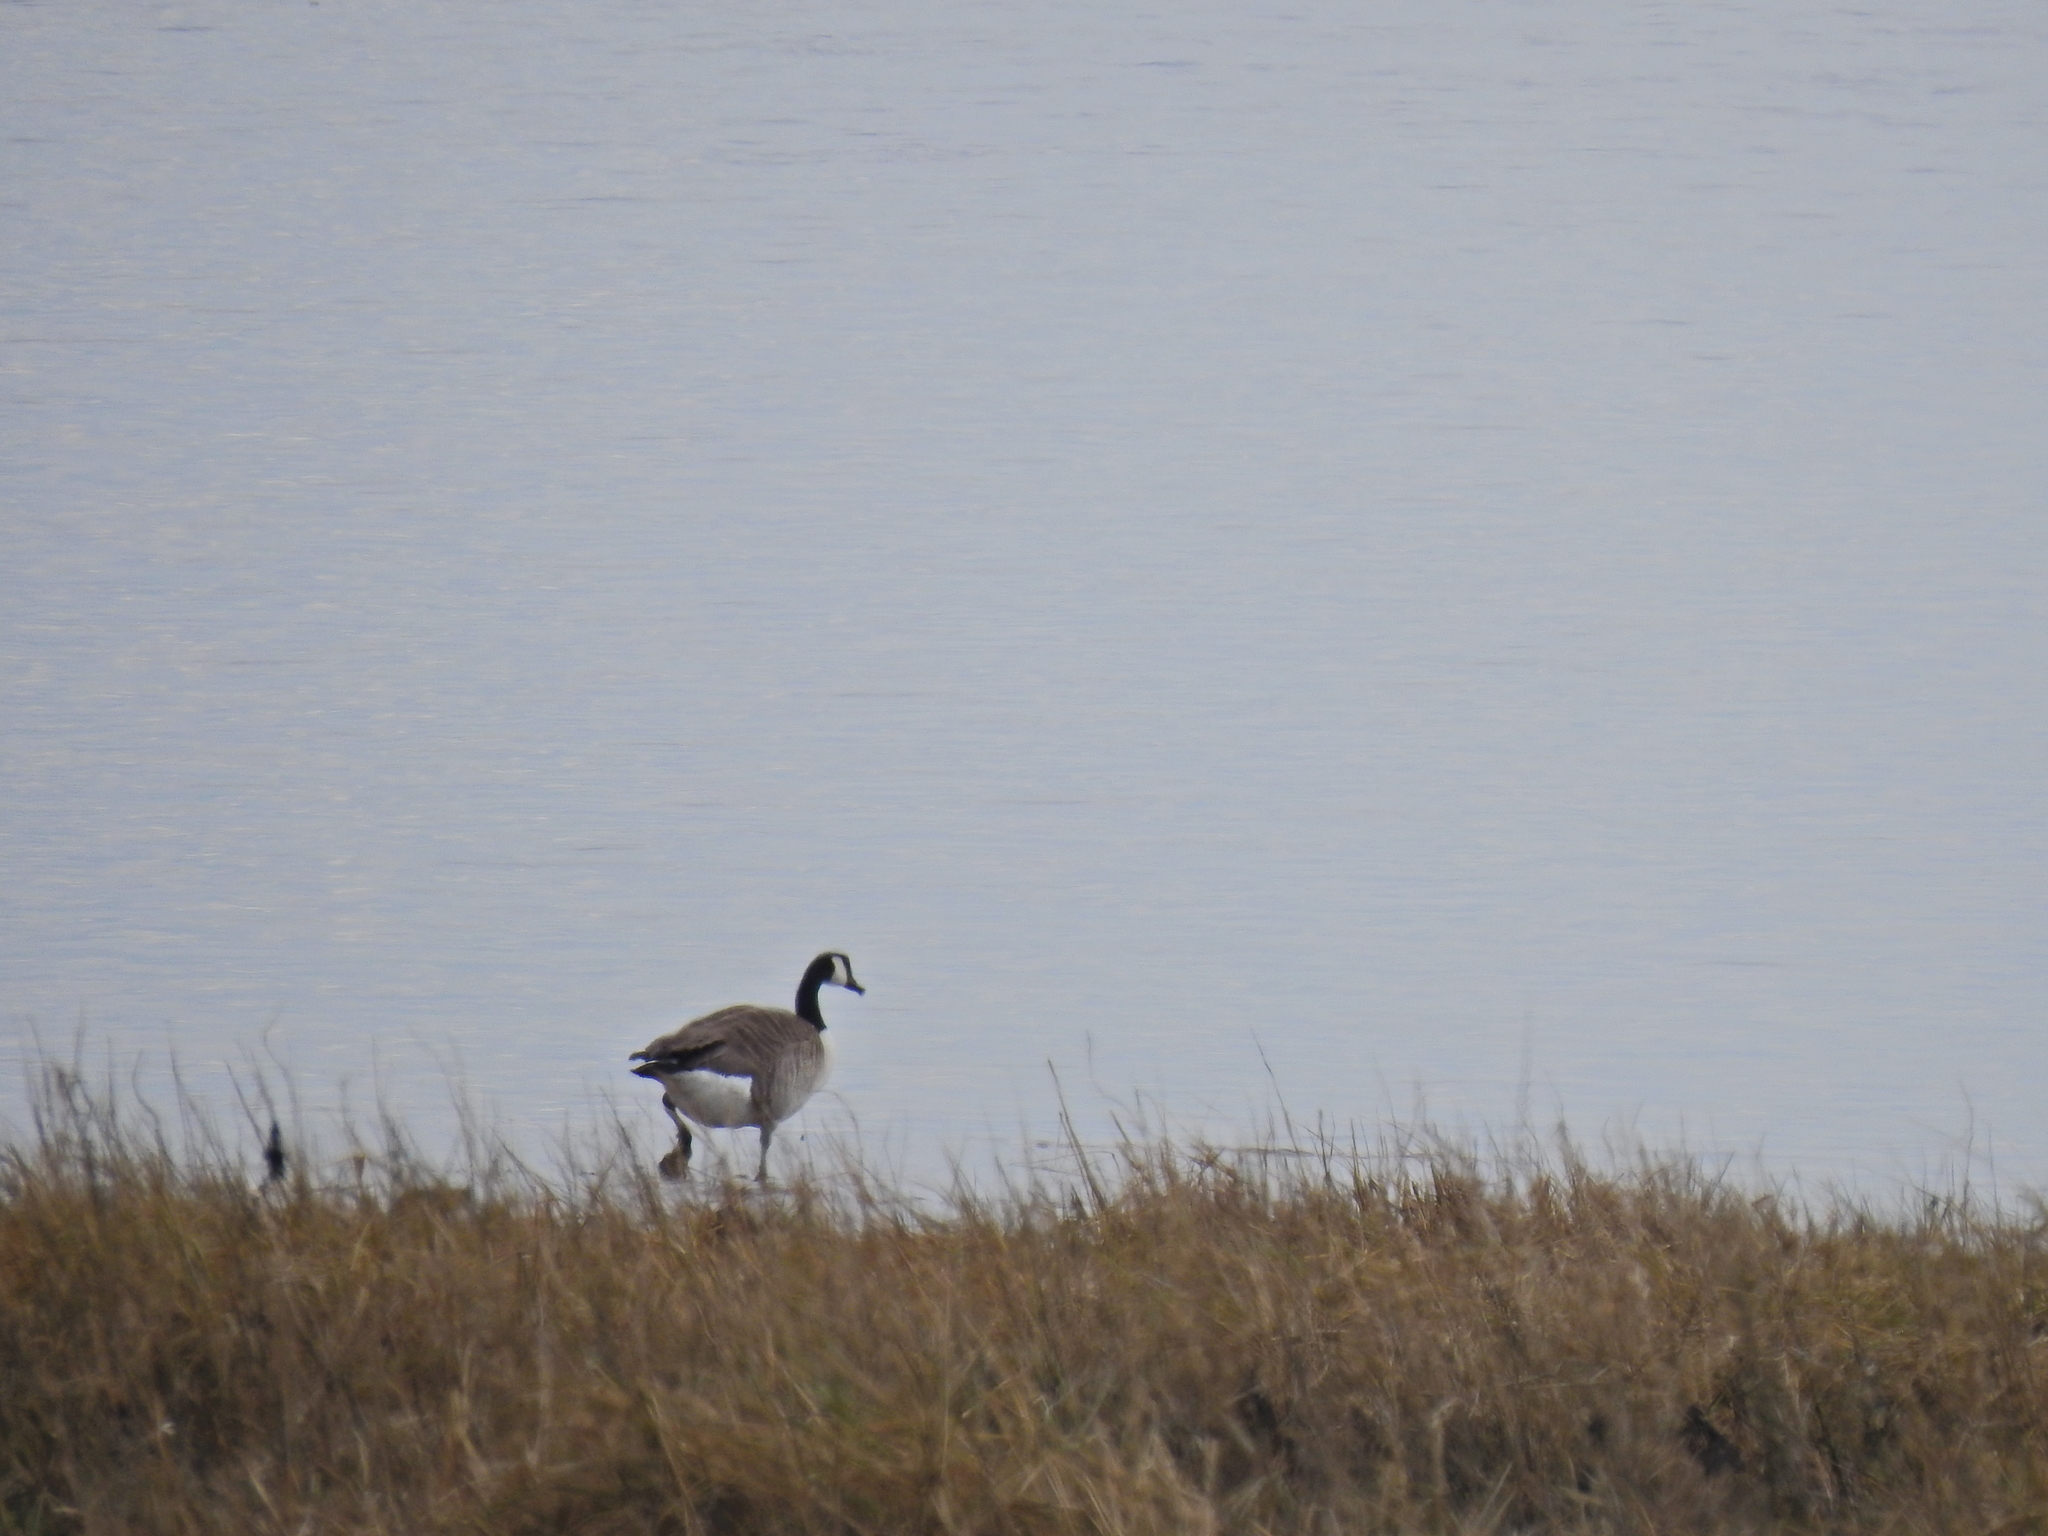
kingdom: Animalia
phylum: Chordata
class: Aves
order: Anseriformes
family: Anatidae
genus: Branta
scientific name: Branta canadensis
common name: Canada goose
